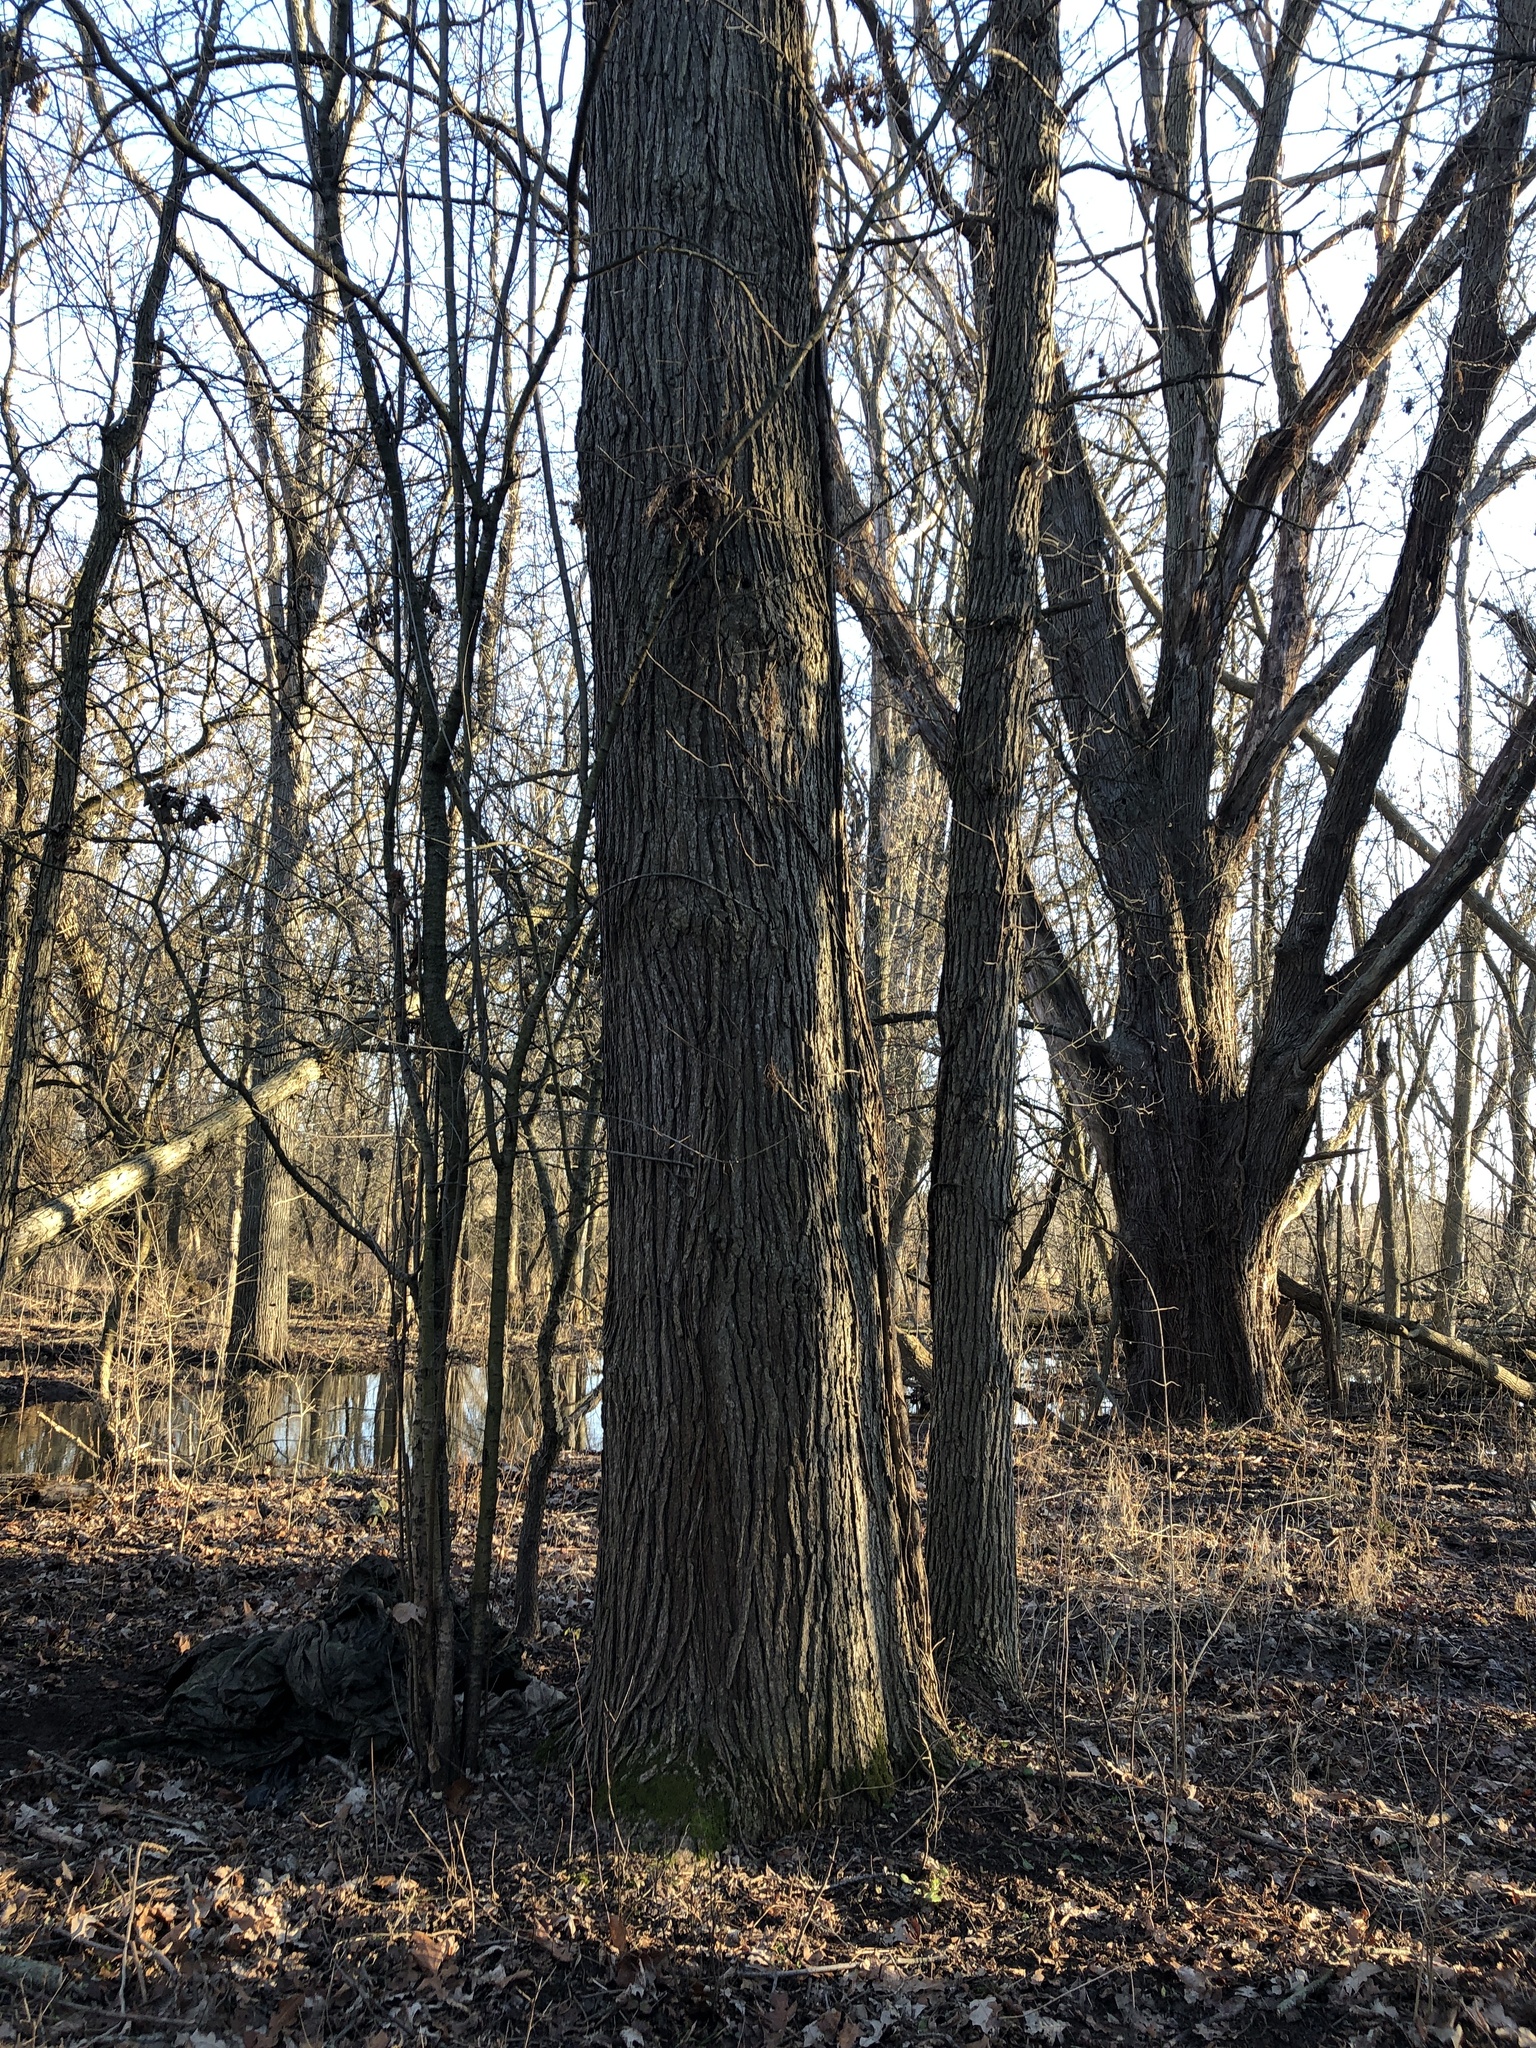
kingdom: Plantae
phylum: Tracheophyta
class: Magnoliopsida
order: Fagales
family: Fagaceae
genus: Quercus
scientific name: Quercus bicolor
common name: Swamp white oak
